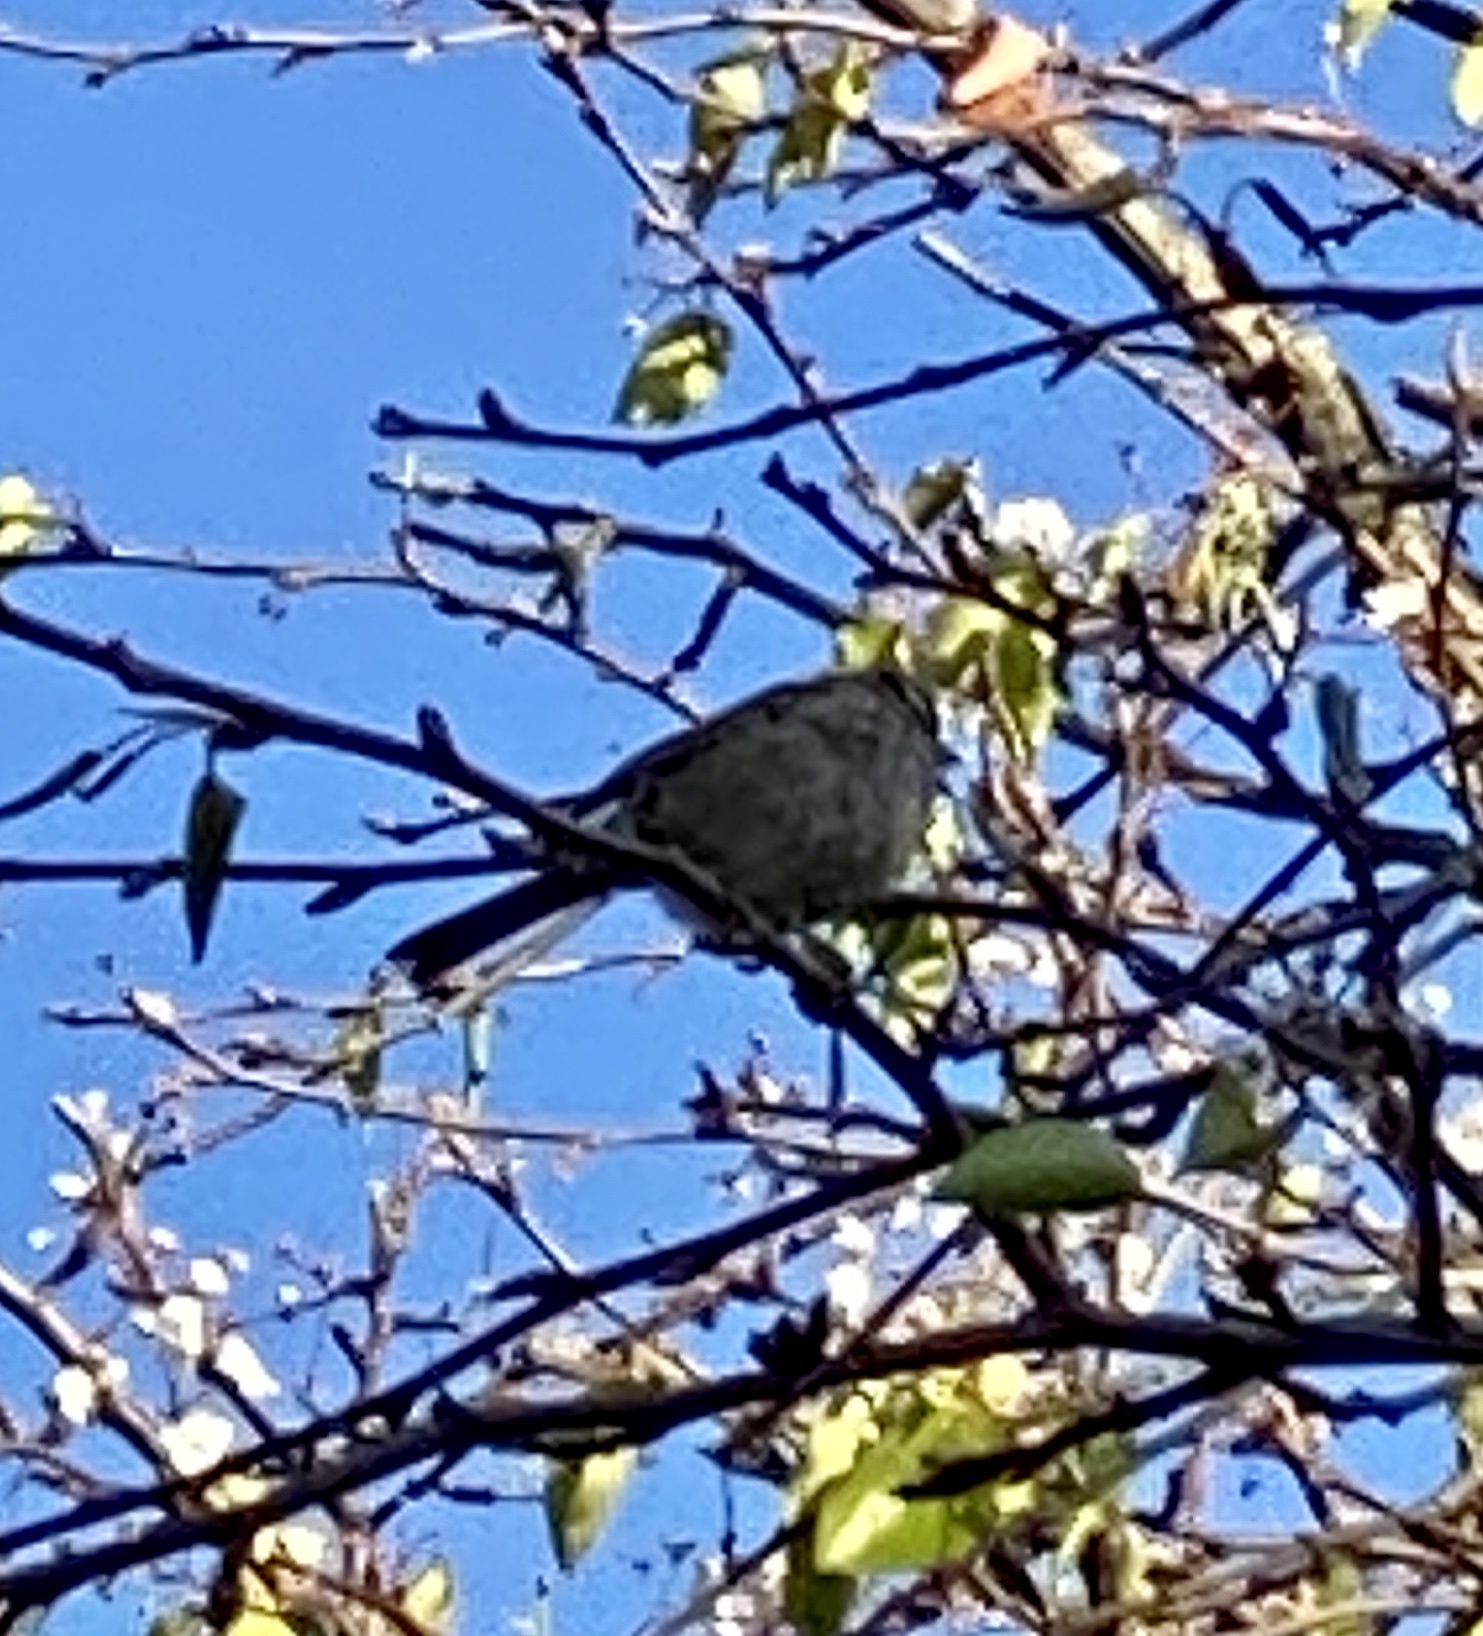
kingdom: Animalia
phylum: Chordata
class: Aves
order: Passeriformes
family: Passerellidae
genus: Zonotrichia
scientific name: Zonotrichia leucophrys
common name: White-crowned sparrow
